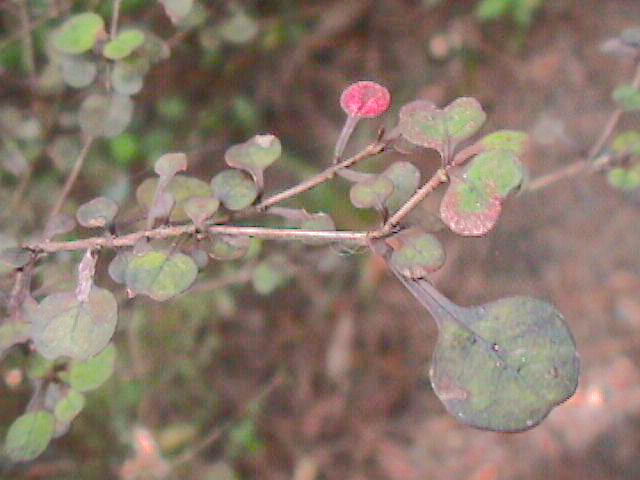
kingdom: Plantae
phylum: Tracheophyta
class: Magnoliopsida
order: Gentianales
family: Rubiaceae
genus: Coprosma
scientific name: Coprosma spathulata
